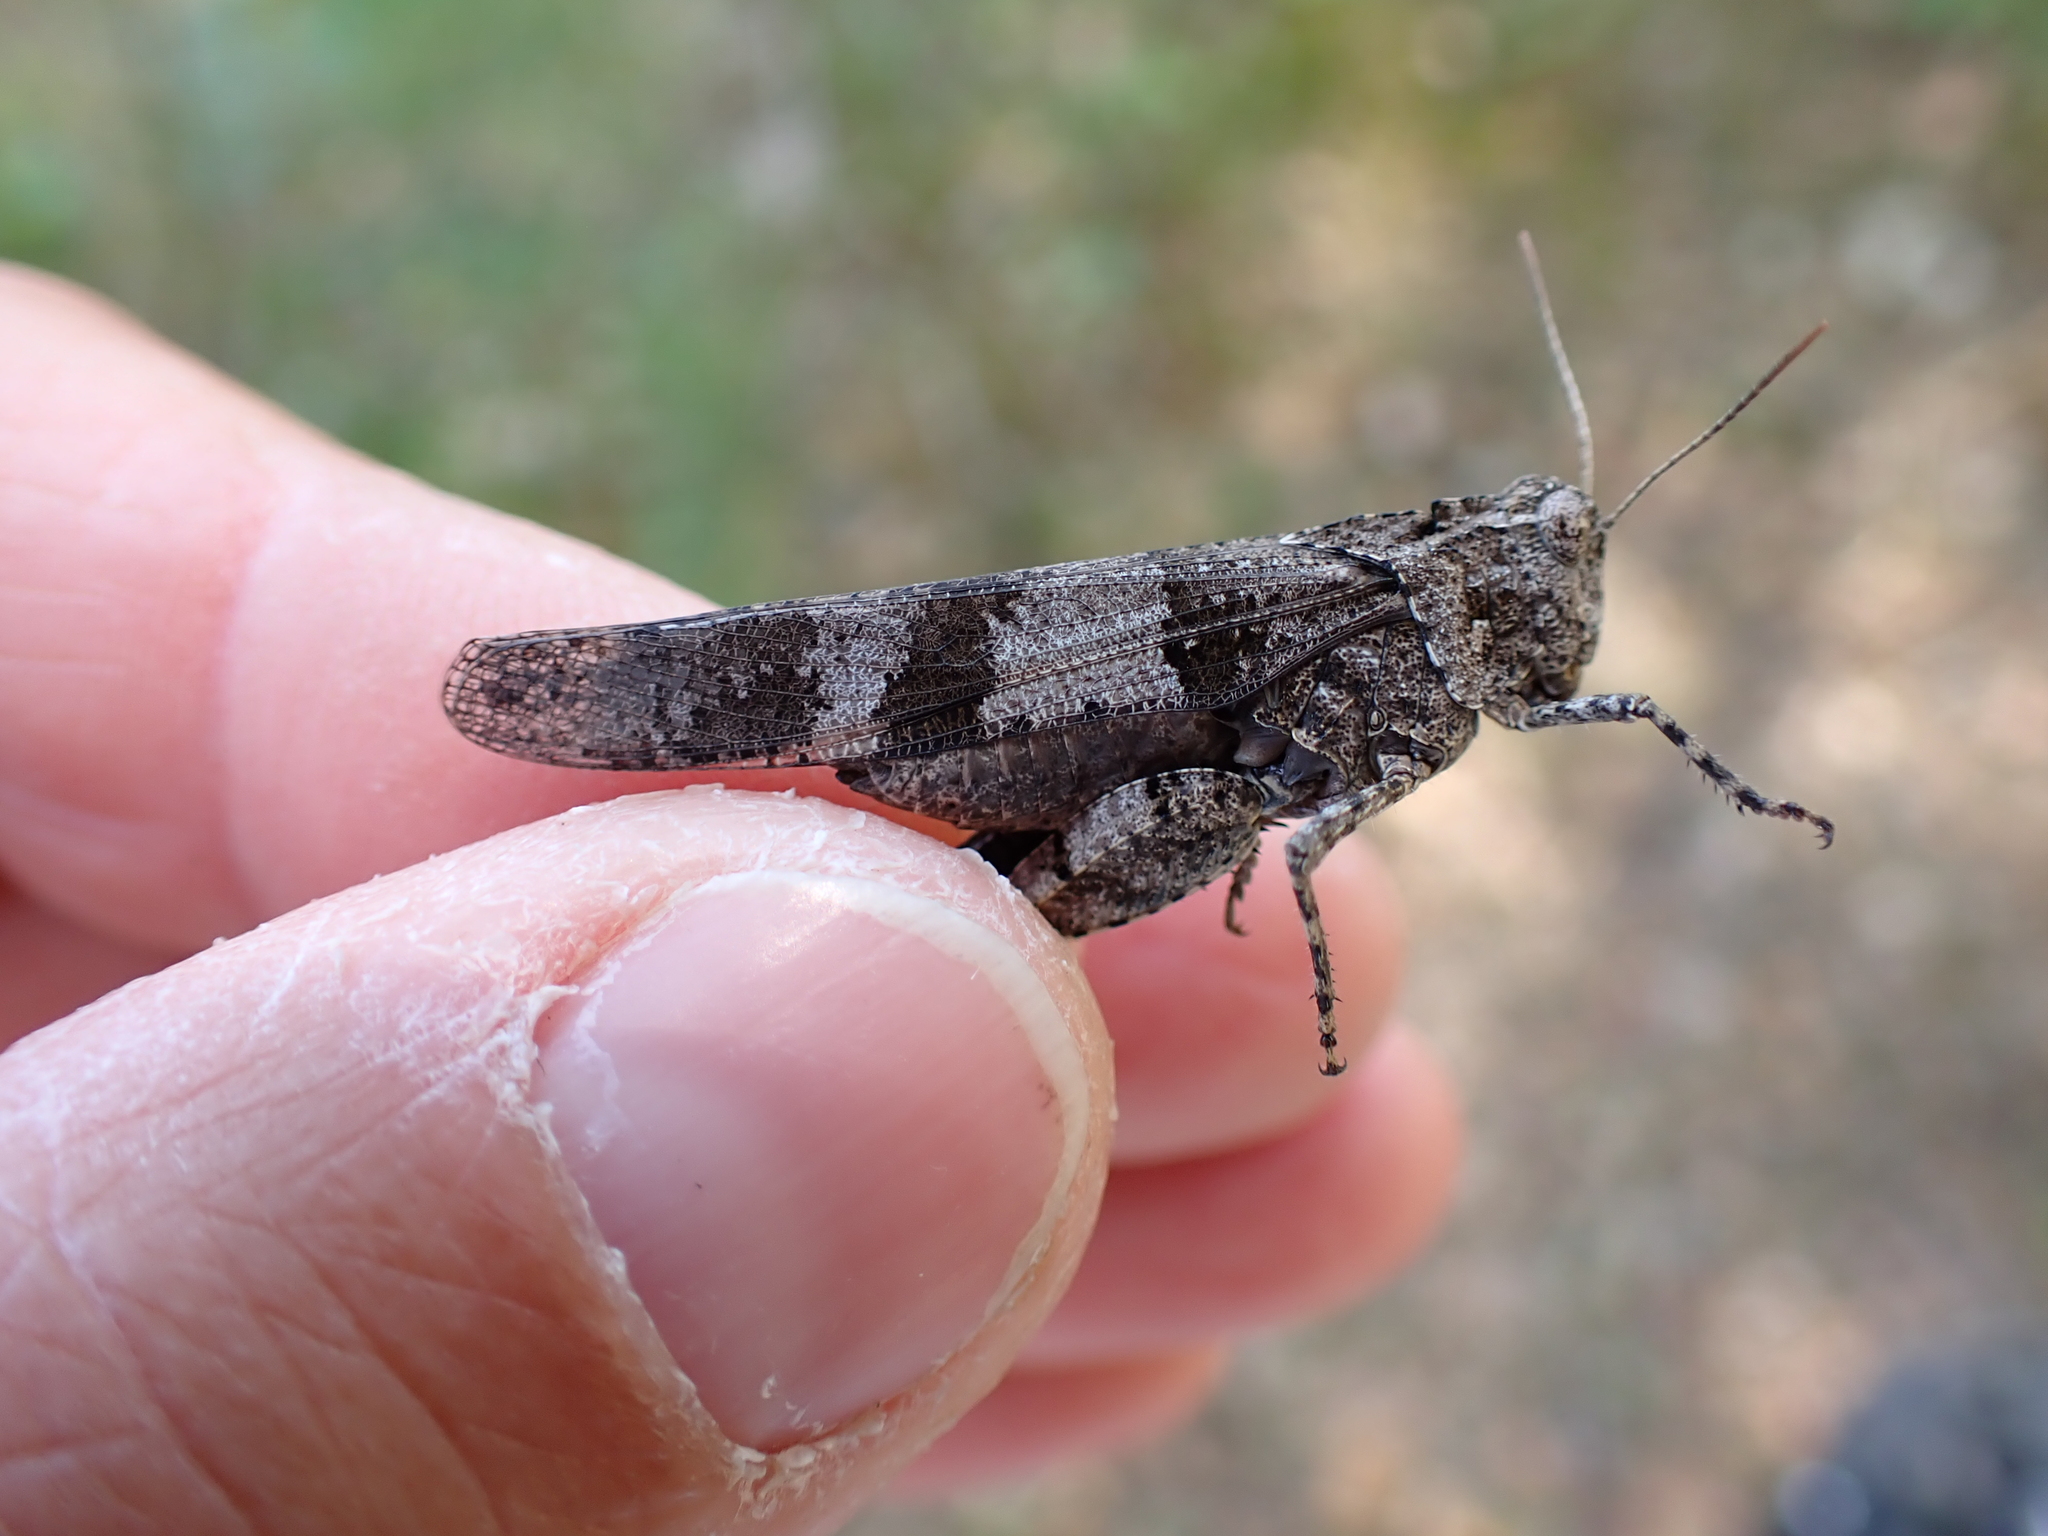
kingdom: Animalia
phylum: Arthropoda
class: Insecta
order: Orthoptera
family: Acrididae
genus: Oedipoda
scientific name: Oedipoda caerulescens
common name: Blue-winged grasshopper
